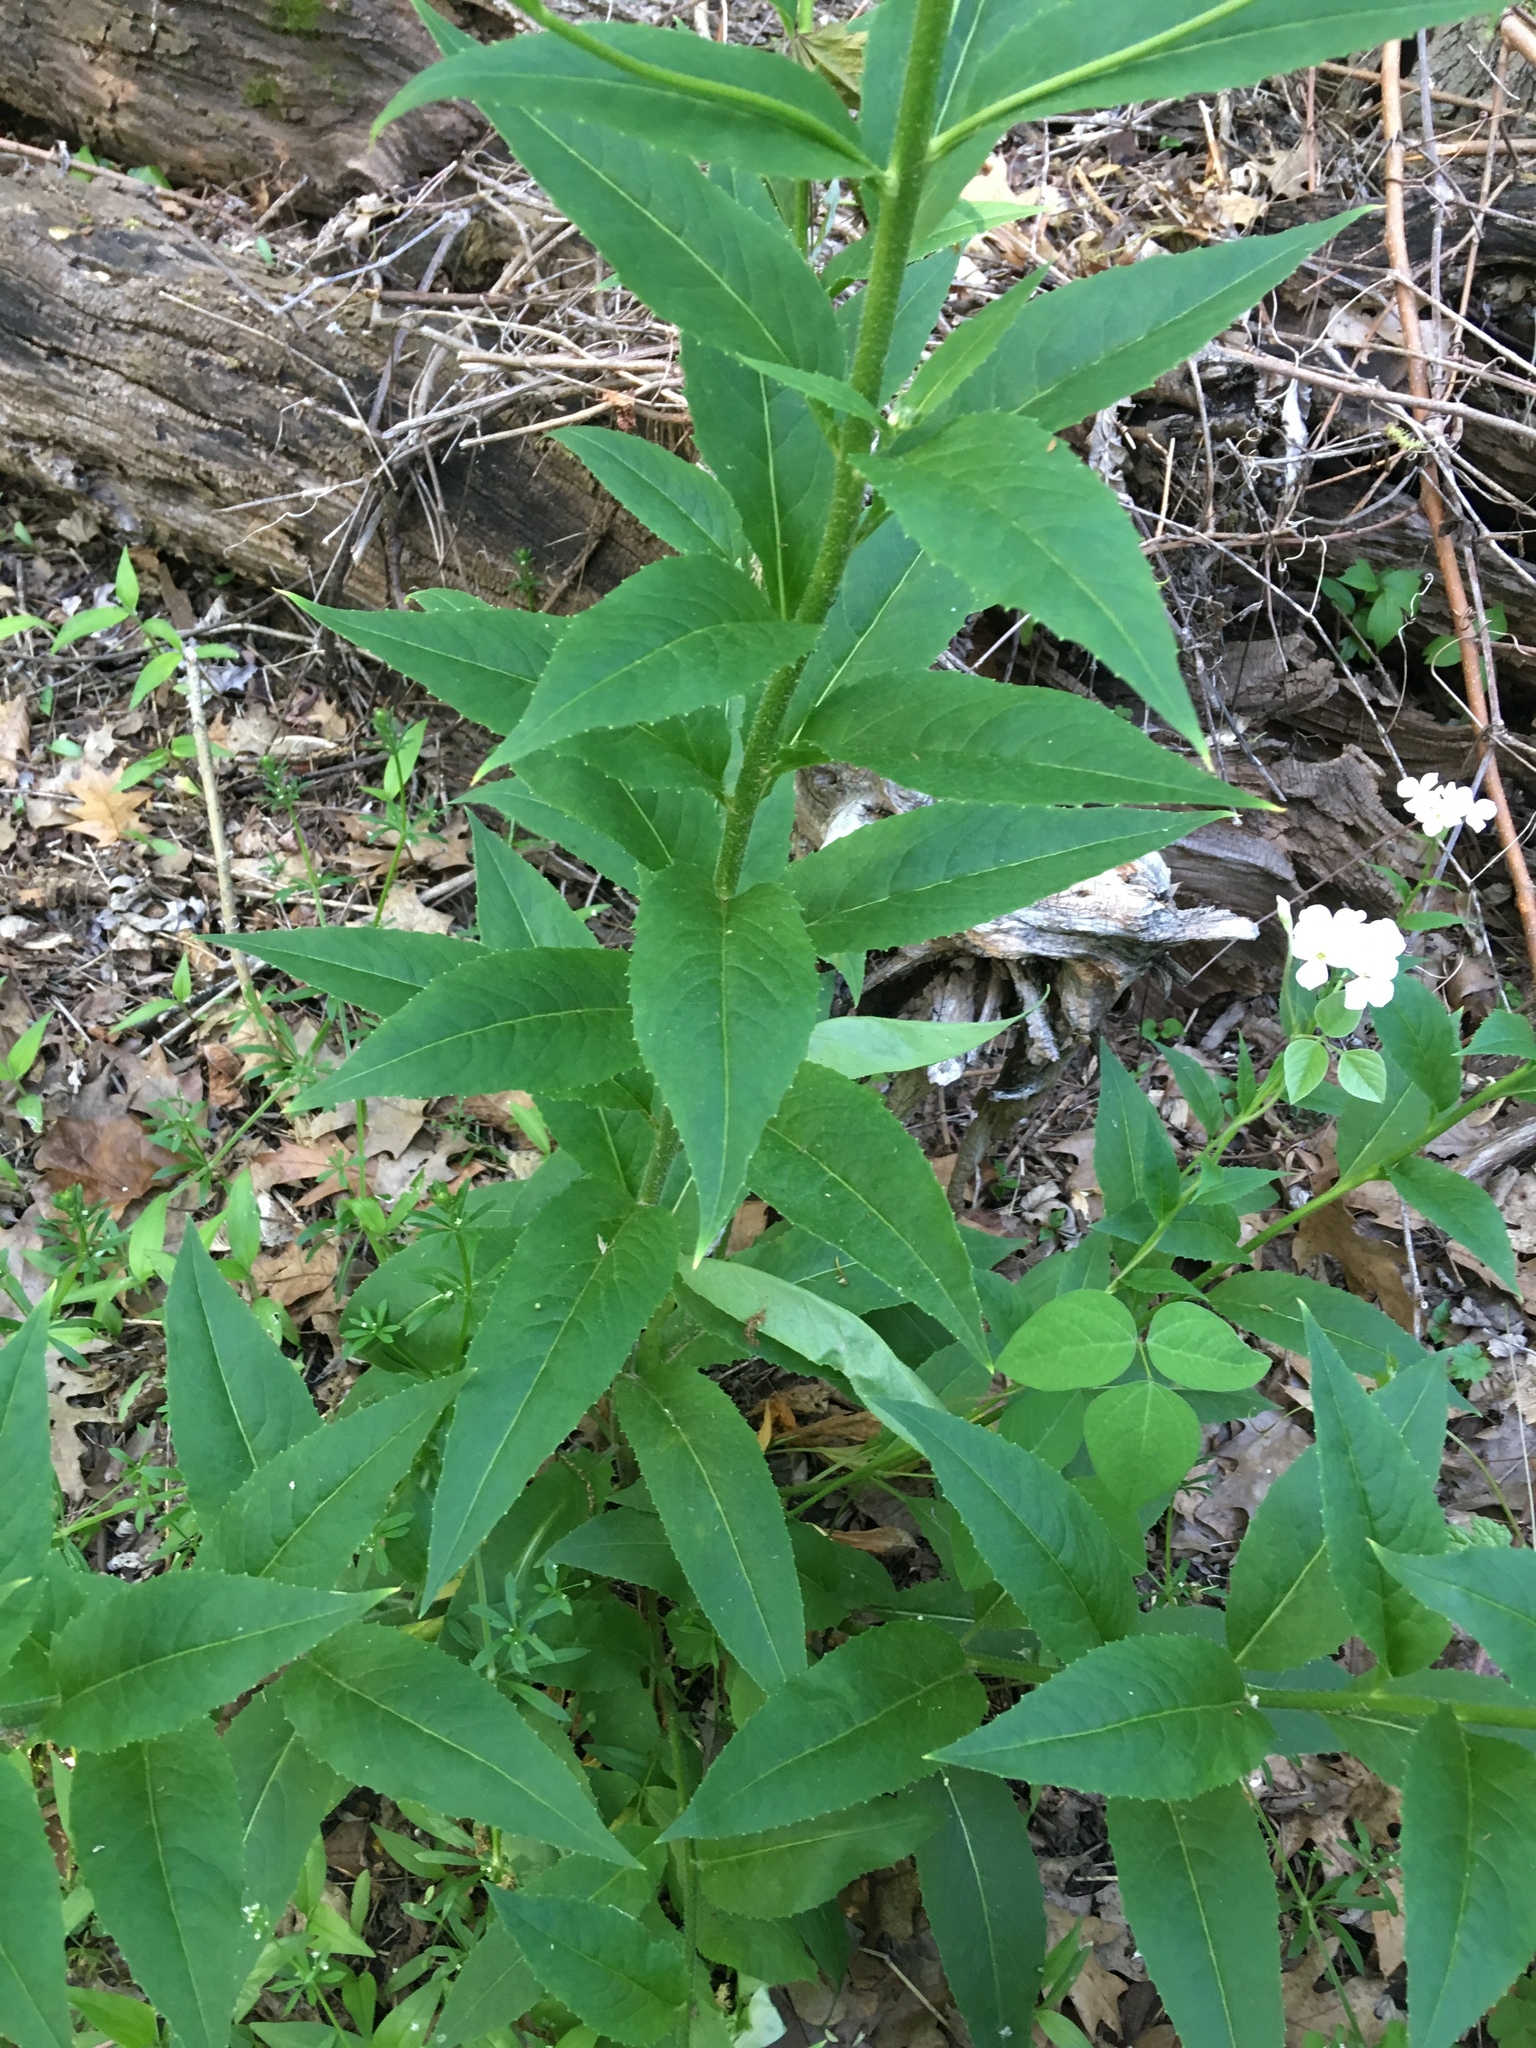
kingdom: Plantae
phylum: Tracheophyta
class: Magnoliopsida
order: Brassicales
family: Brassicaceae
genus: Hesperis
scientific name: Hesperis matronalis
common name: Dame's-violet
